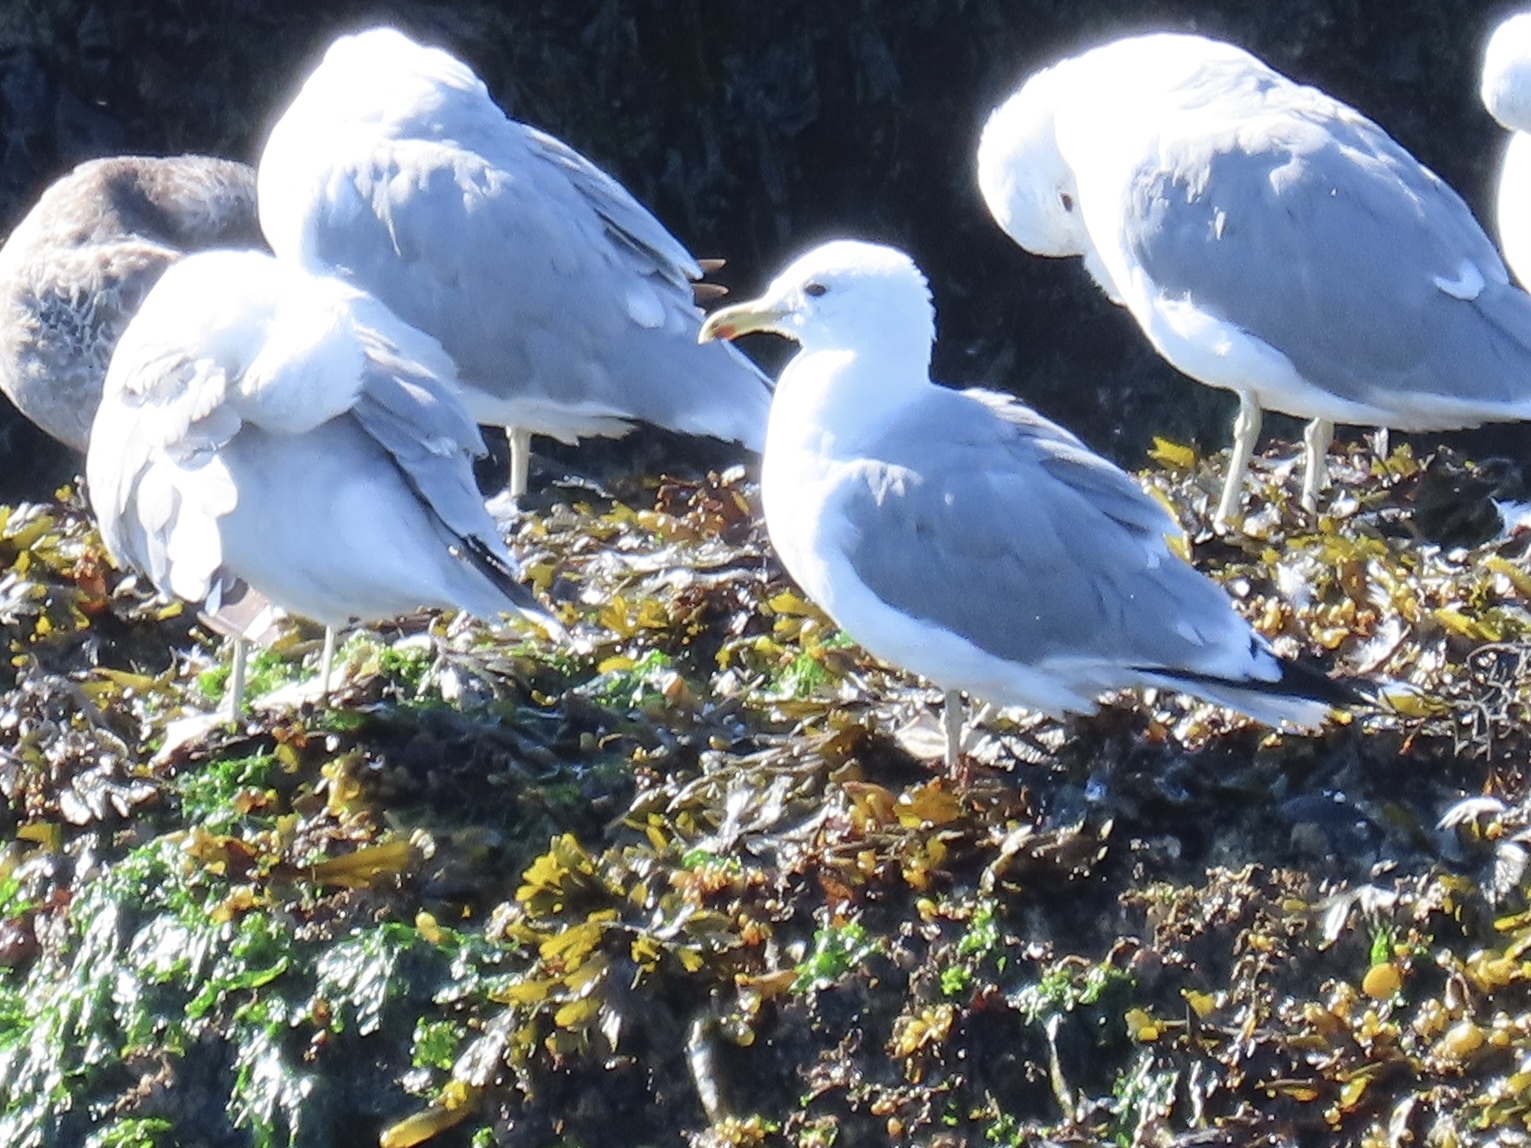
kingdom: Animalia
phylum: Chordata
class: Aves
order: Charadriiformes
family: Laridae
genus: Larus
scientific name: Larus californicus
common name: California gull
